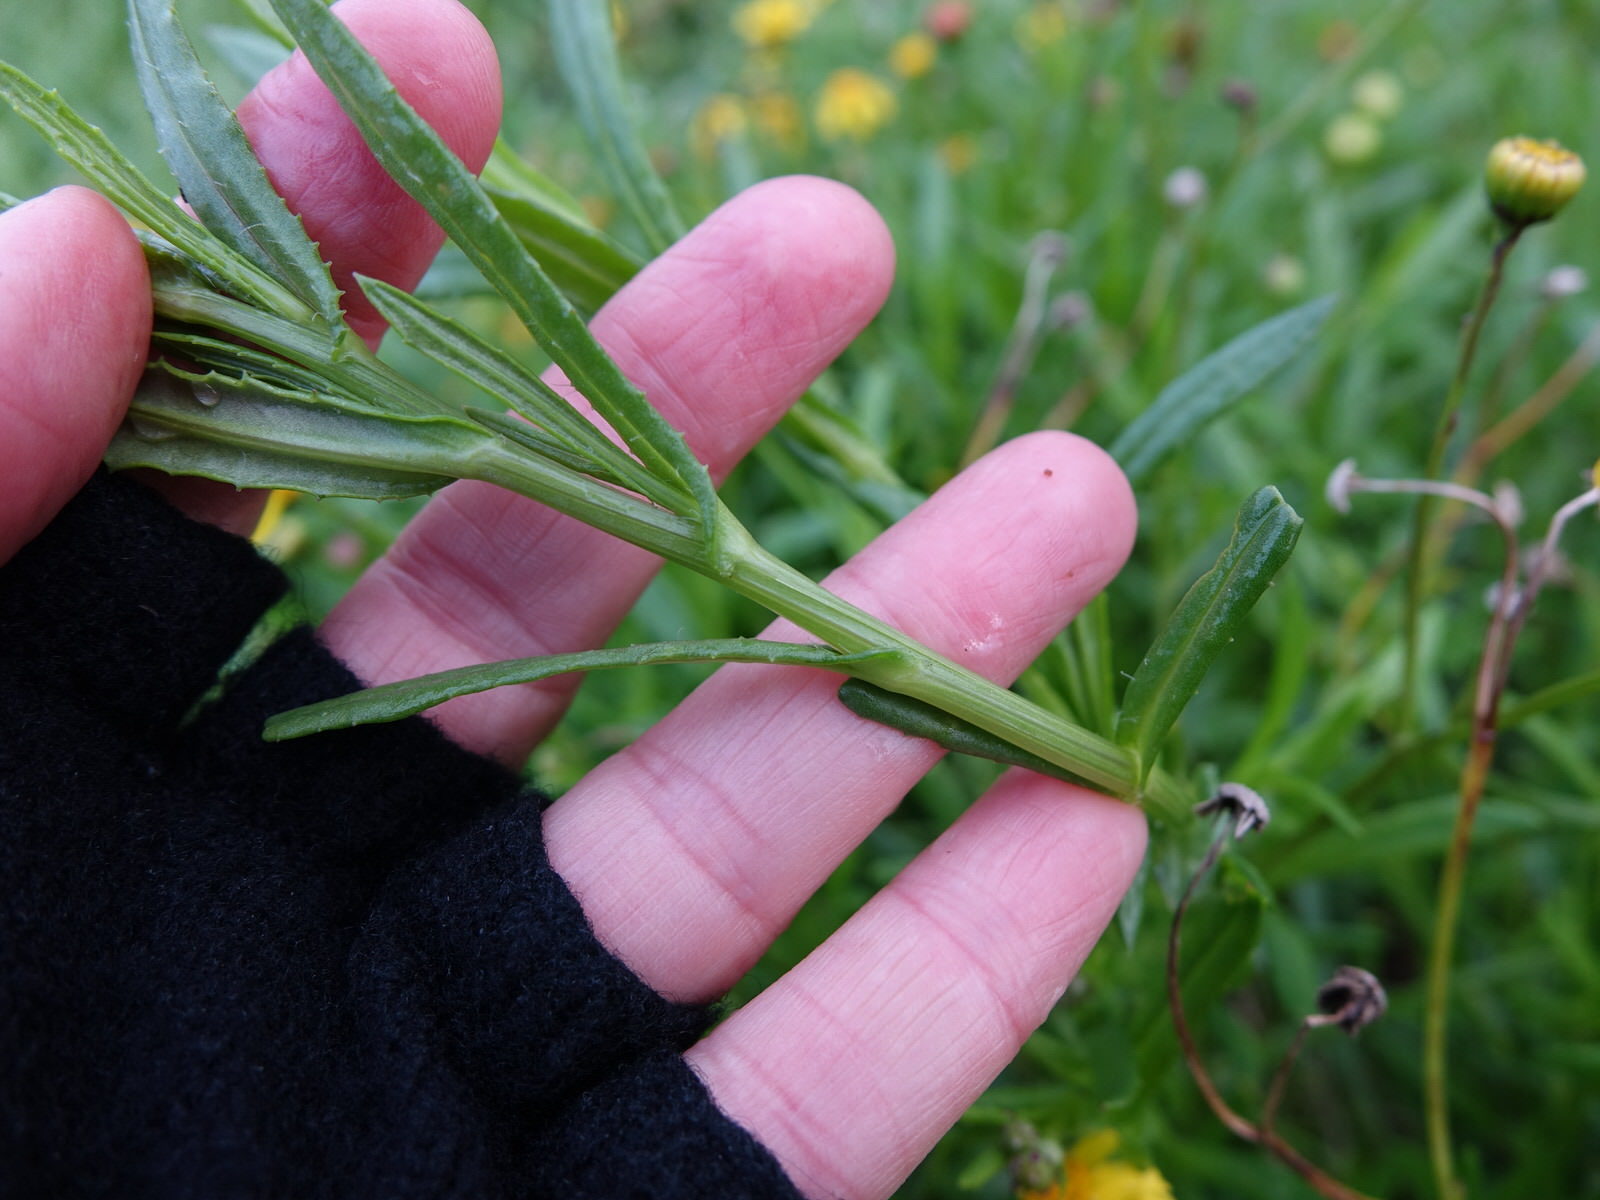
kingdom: Plantae
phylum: Tracheophyta
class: Magnoliopsida
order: Asterales
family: Asteraceae
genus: Senecio
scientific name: Senecio skirrhodon
